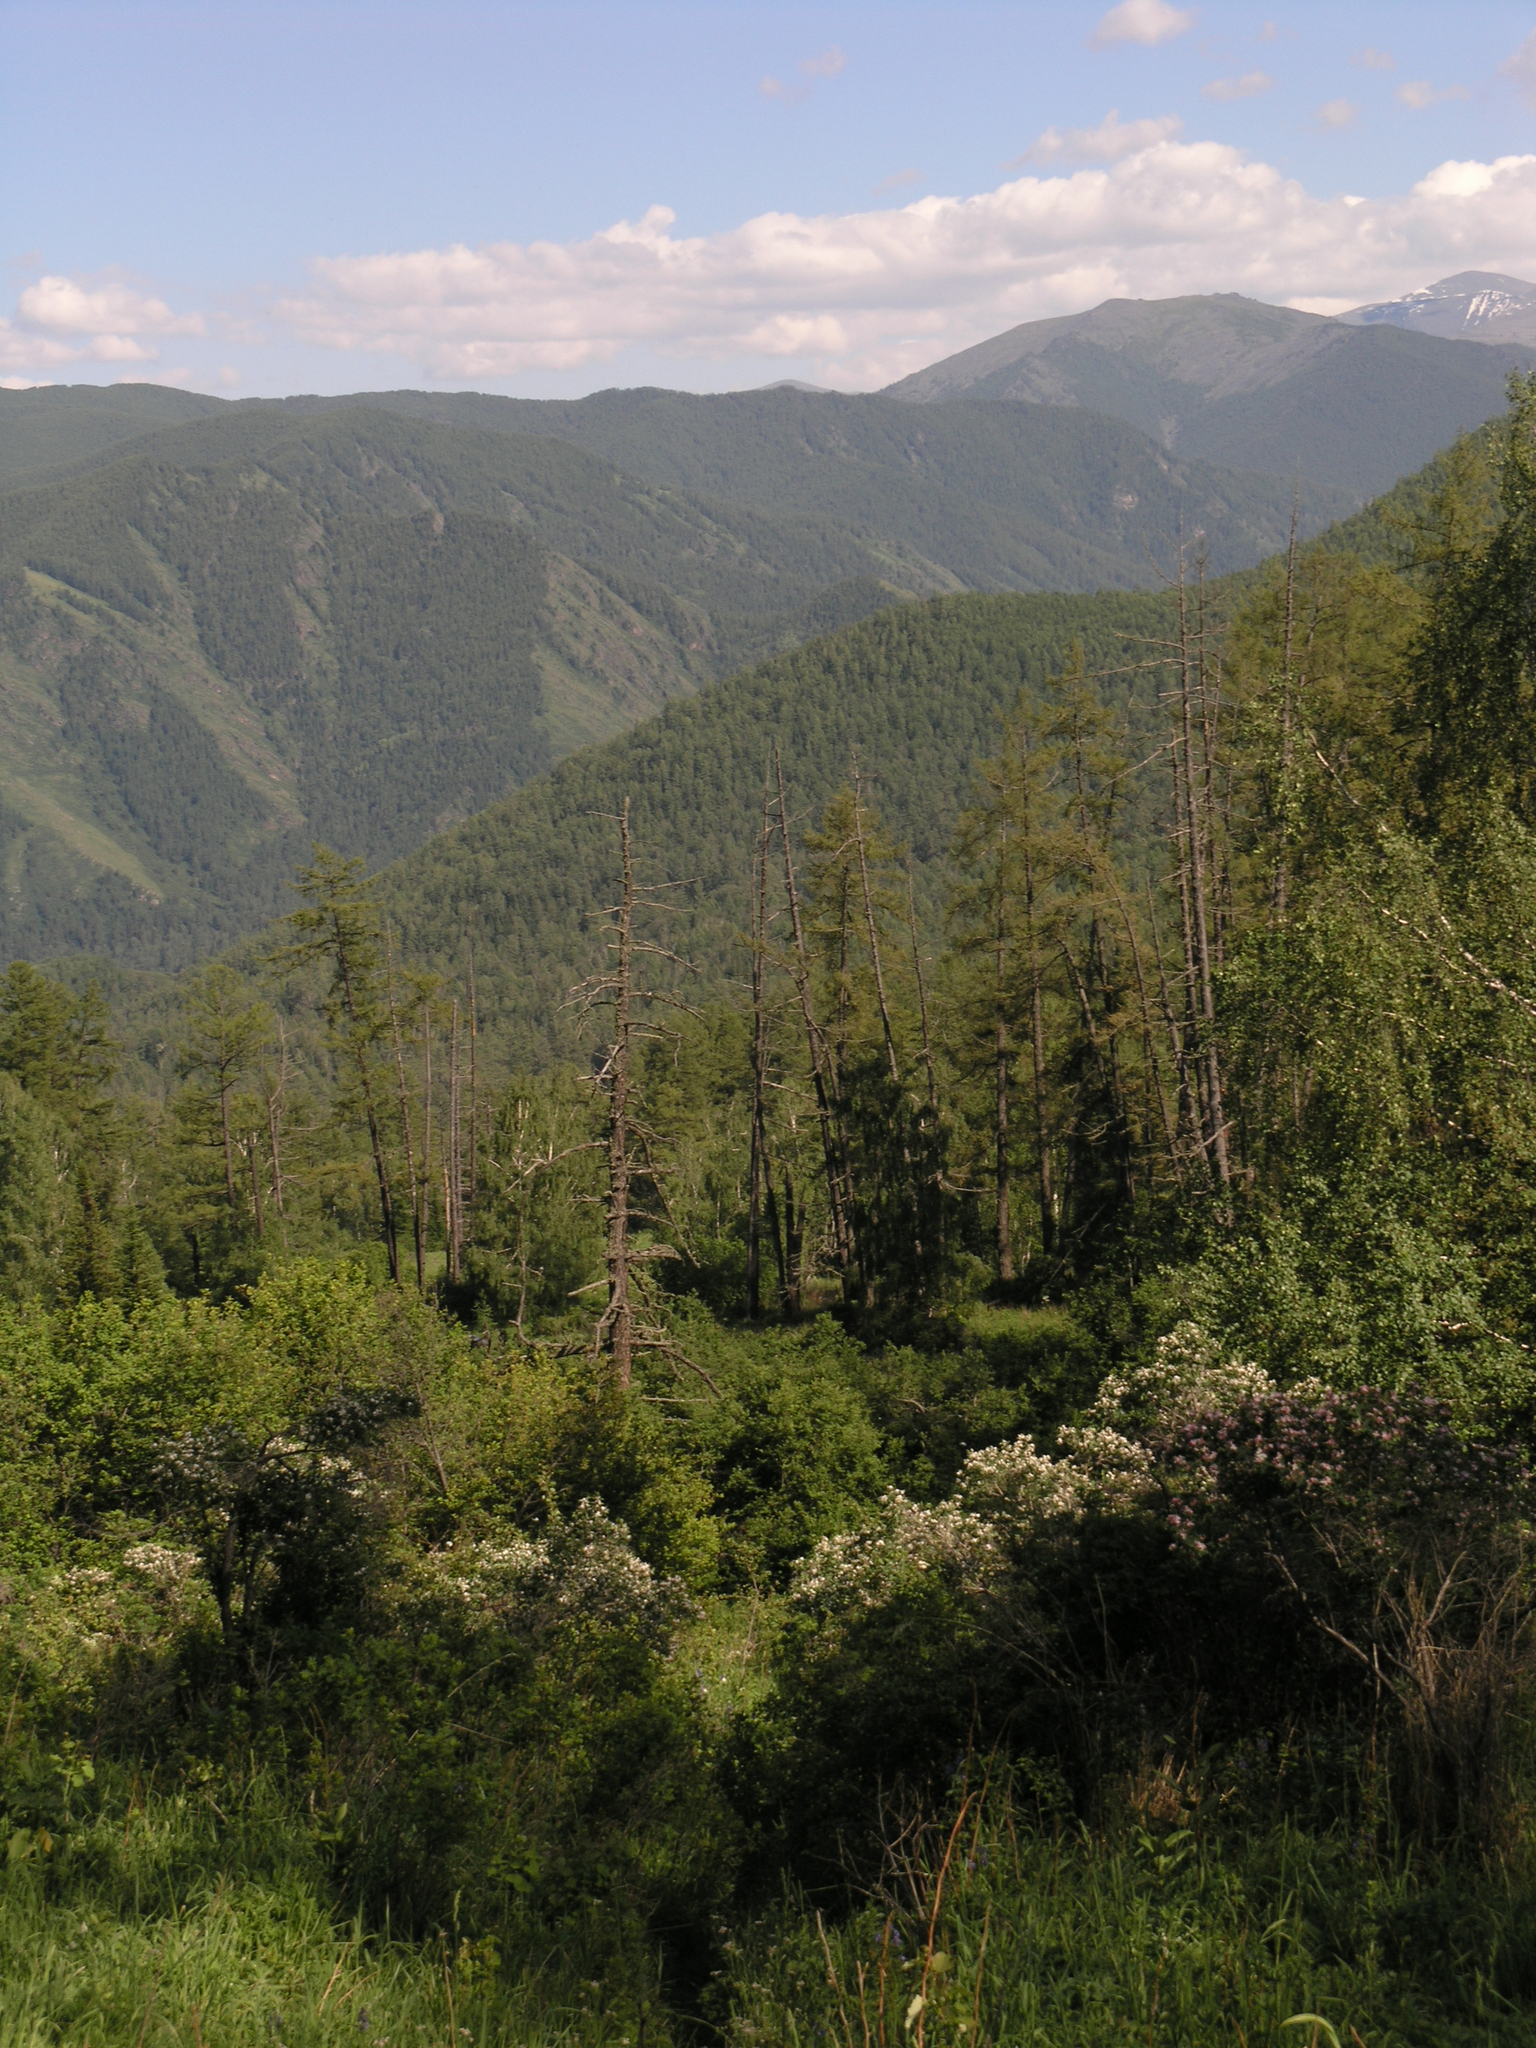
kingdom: Plantae
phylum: Tracheophyta
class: Pinopsida
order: Pinales
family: Pinaceae
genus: Larix
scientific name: Larix sibirica
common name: Siberian larch
